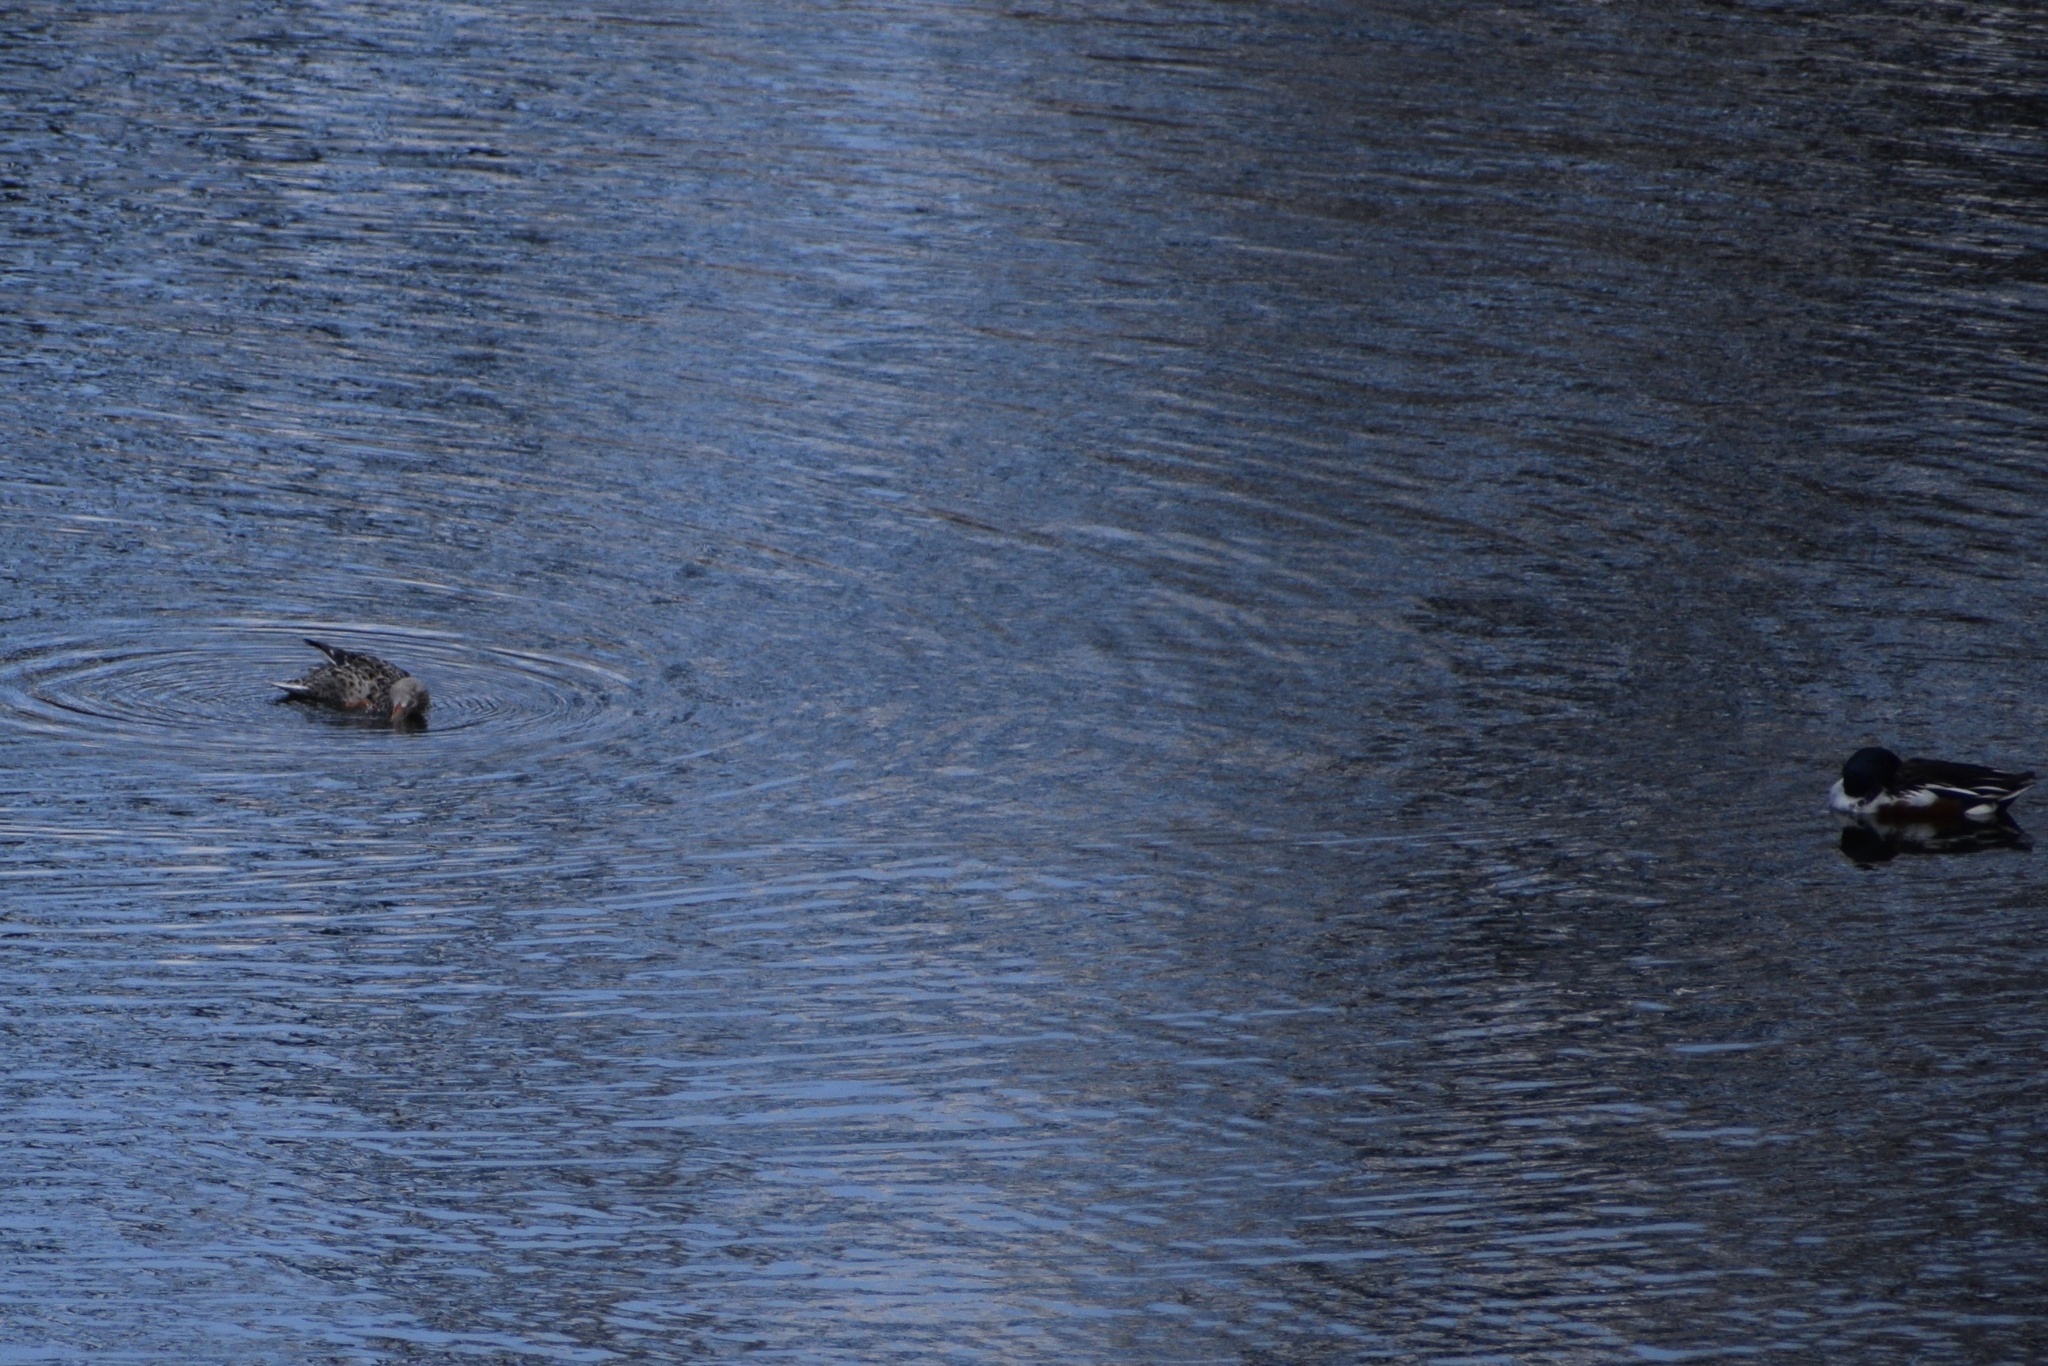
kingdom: Animalia
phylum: Chordata
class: Aves
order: Anseriformes
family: Anatidae
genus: Spatula
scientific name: Spatula clypeata
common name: Northern shoveler
